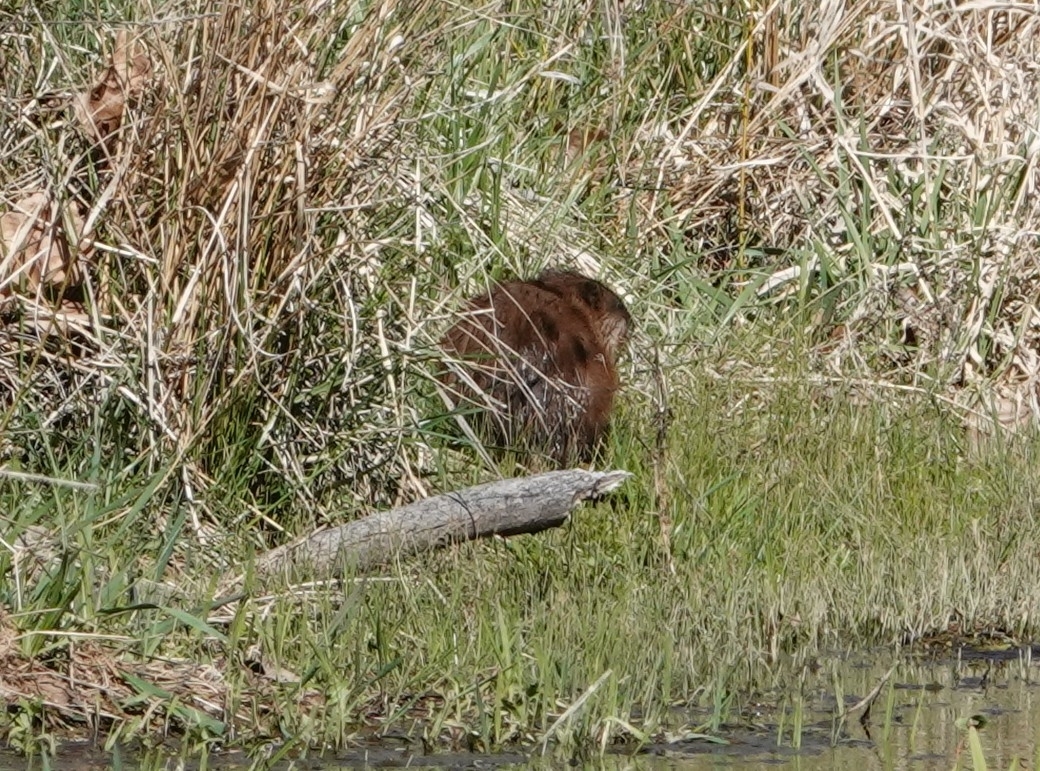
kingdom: Animalia
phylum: Chordata
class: Mammalia
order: Rodentia
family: Cricetidae
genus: Ondatra
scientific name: Ondatra zibethicus
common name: Muskrat
